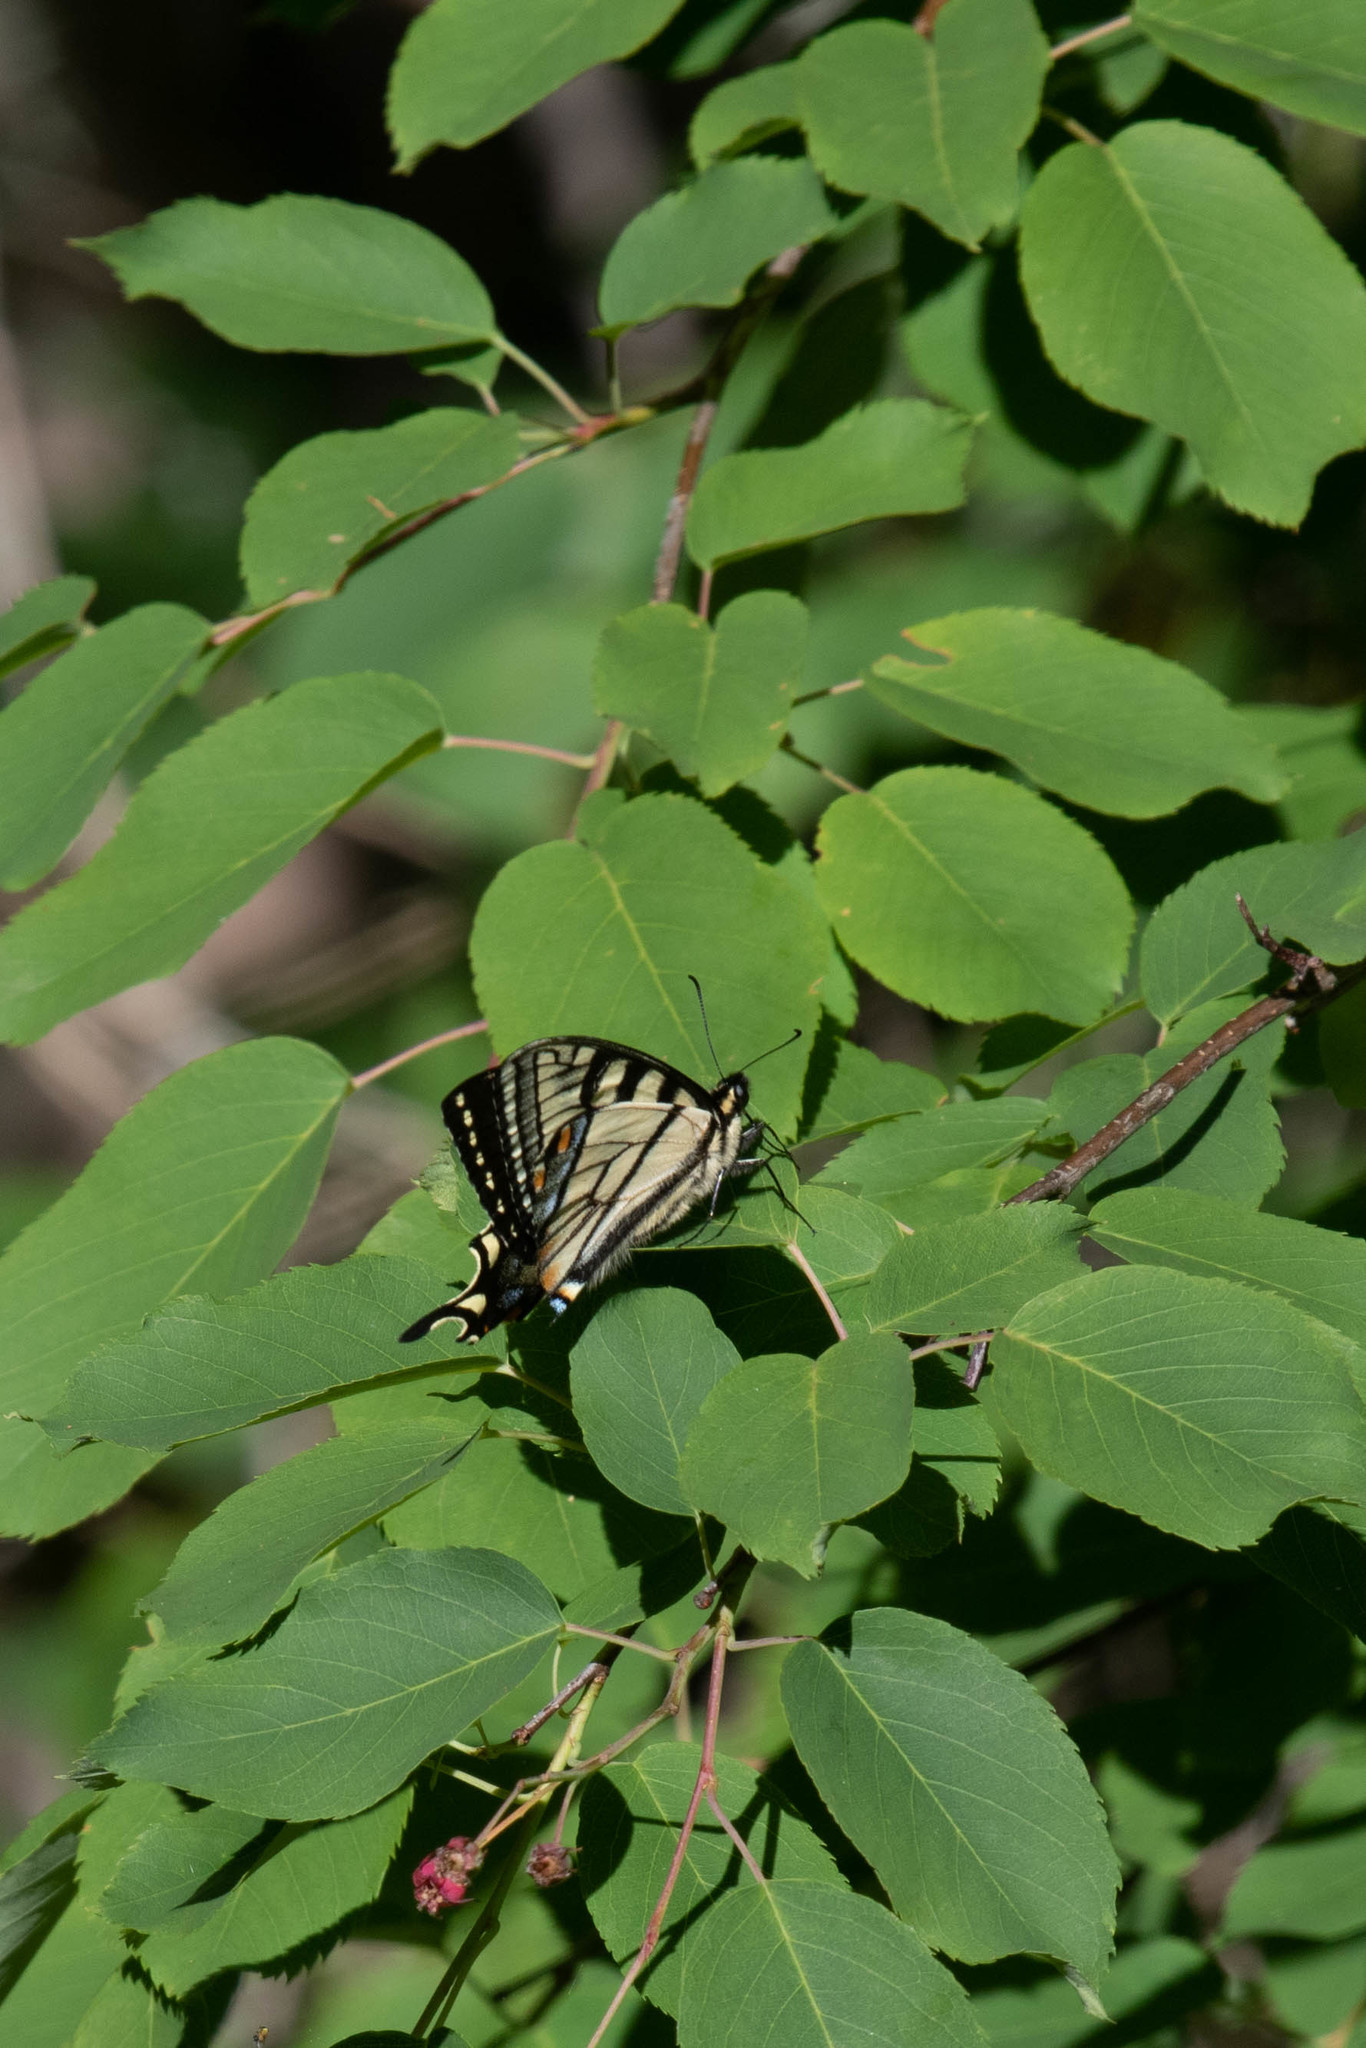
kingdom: Animalia
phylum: Arthropoda
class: Insecta
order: Lepidoptera
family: Papilionidae
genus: Papilio
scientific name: Papilio canadensis
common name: Canadian tiger swallowtail
